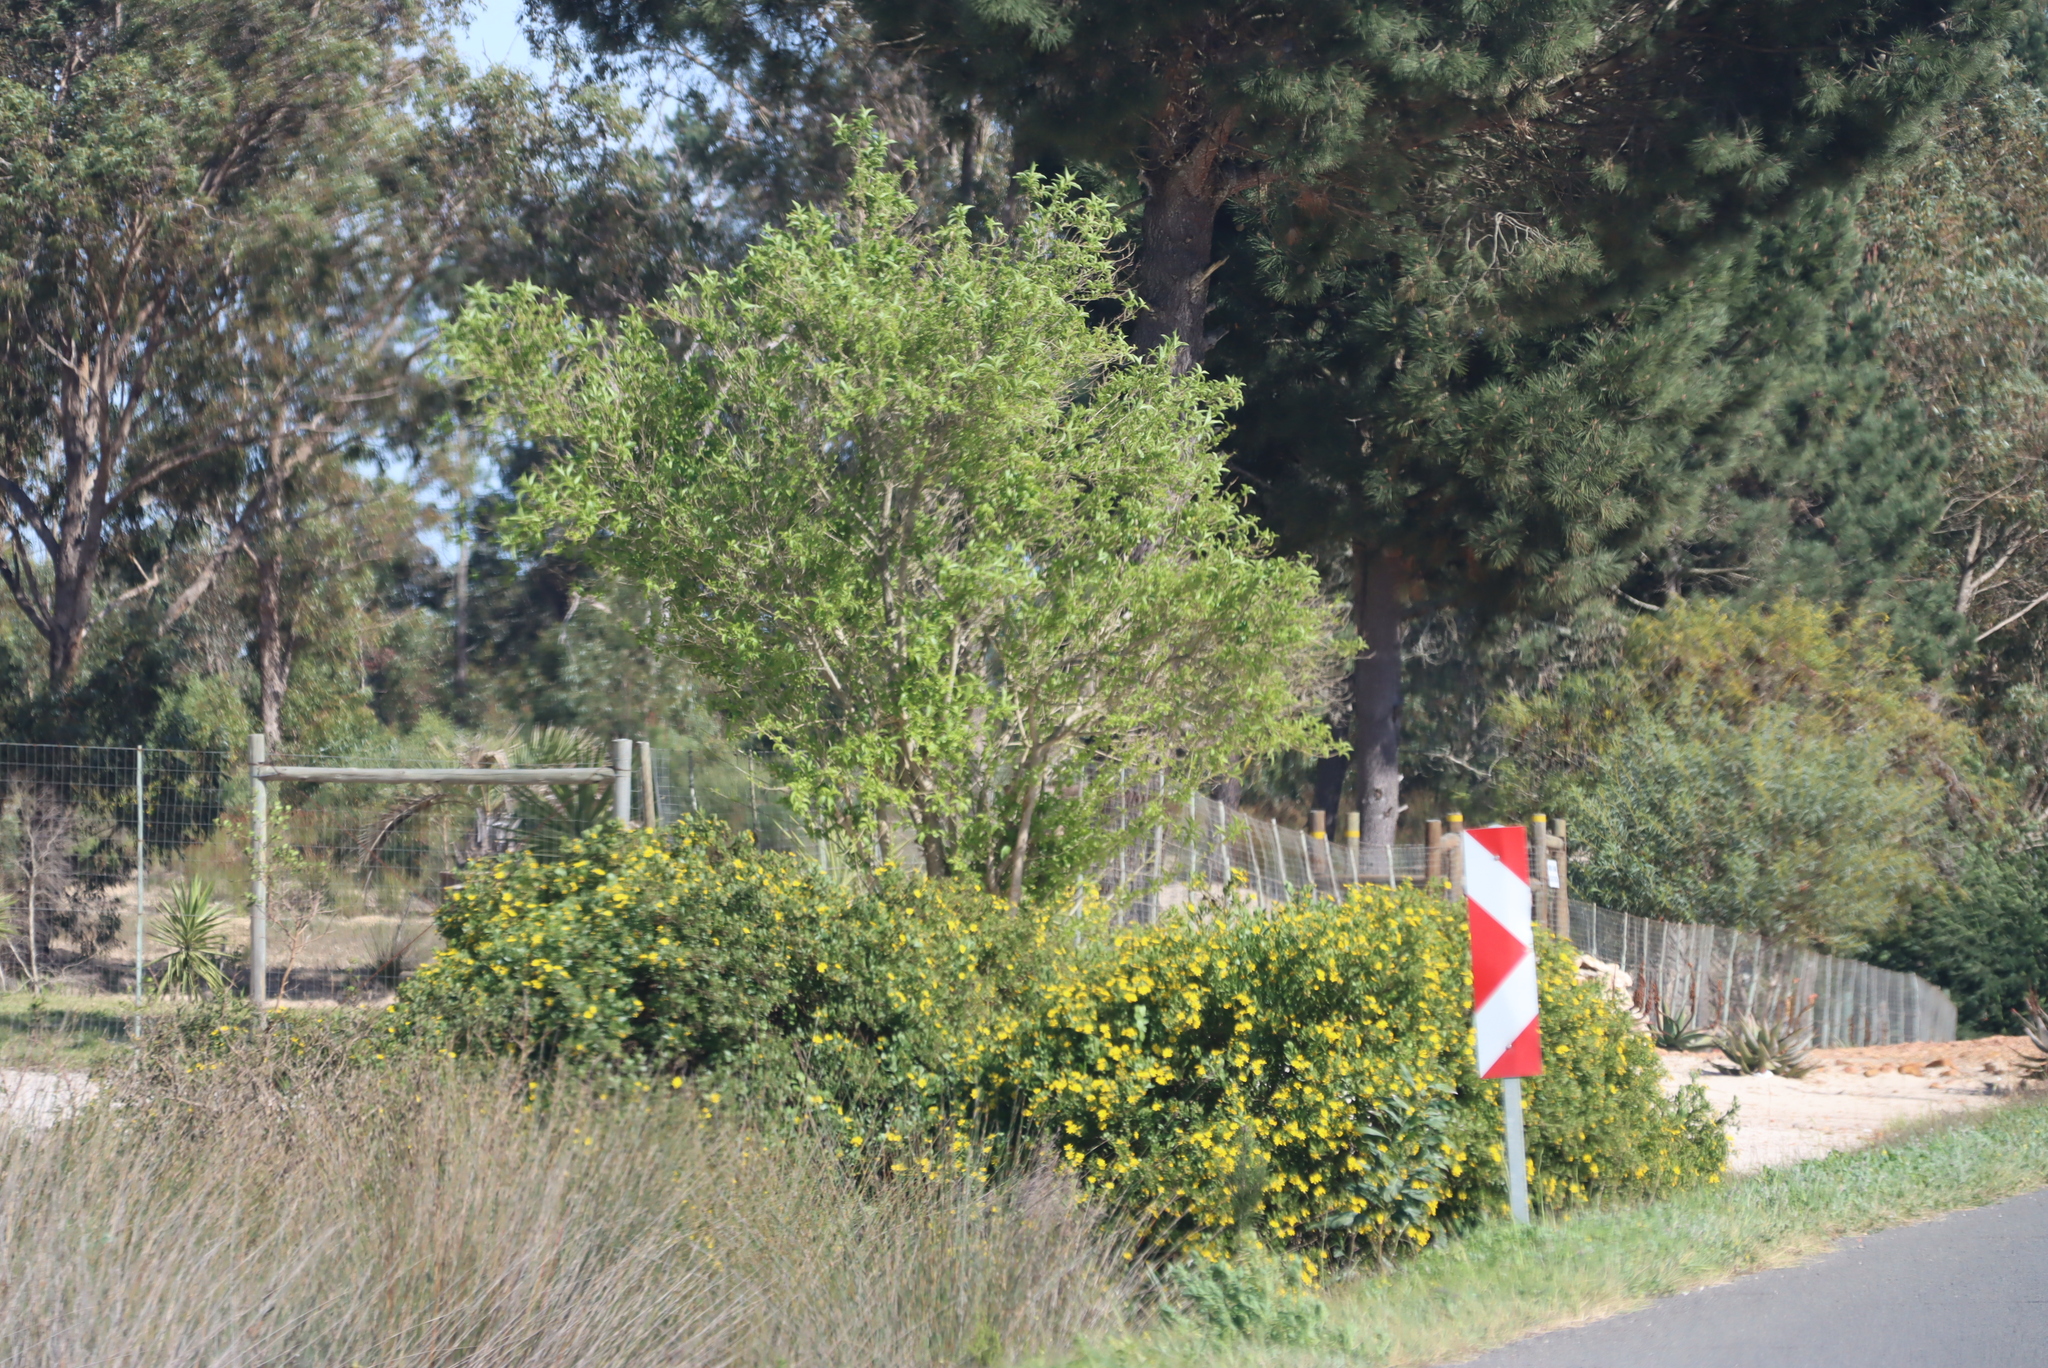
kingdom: Plantae
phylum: Tracheophyta
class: Magnoliopsida
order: Asterales
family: Asteraceae
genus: Osteospermum
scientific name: Osteospermum moniliferum
